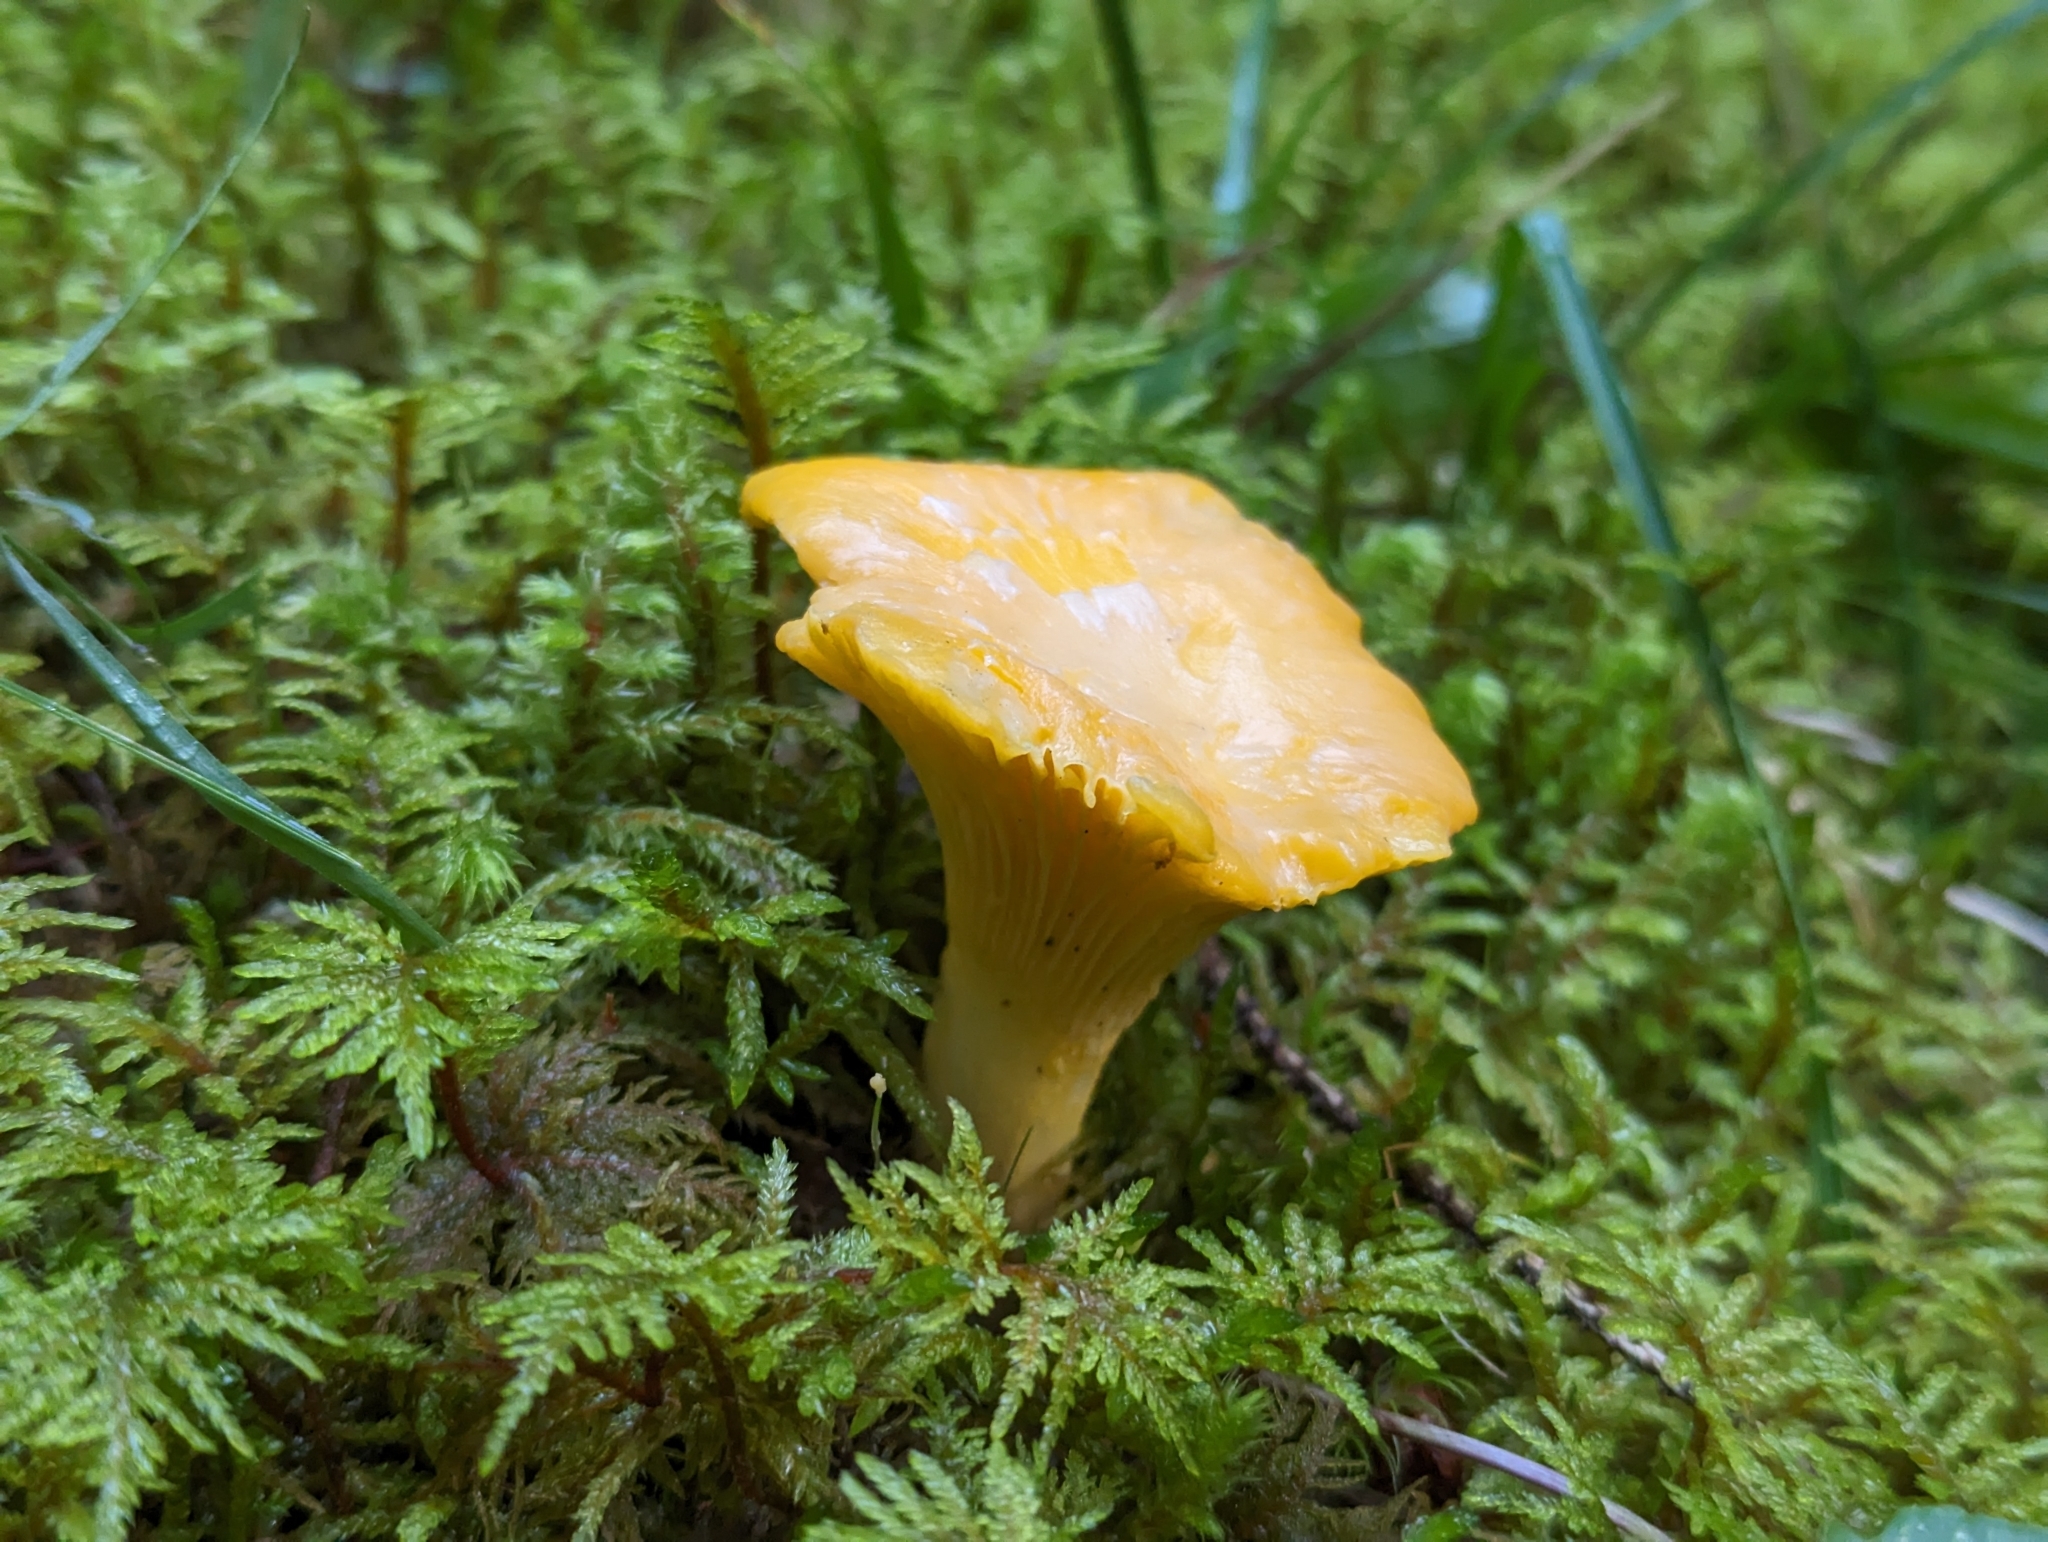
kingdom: Fungi
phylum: Basidiomycota
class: Agaricomycetes
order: Cantharellales
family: Hydnaceae
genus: Cantharellus
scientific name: Cantharellus cibarius
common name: Chanterelle
